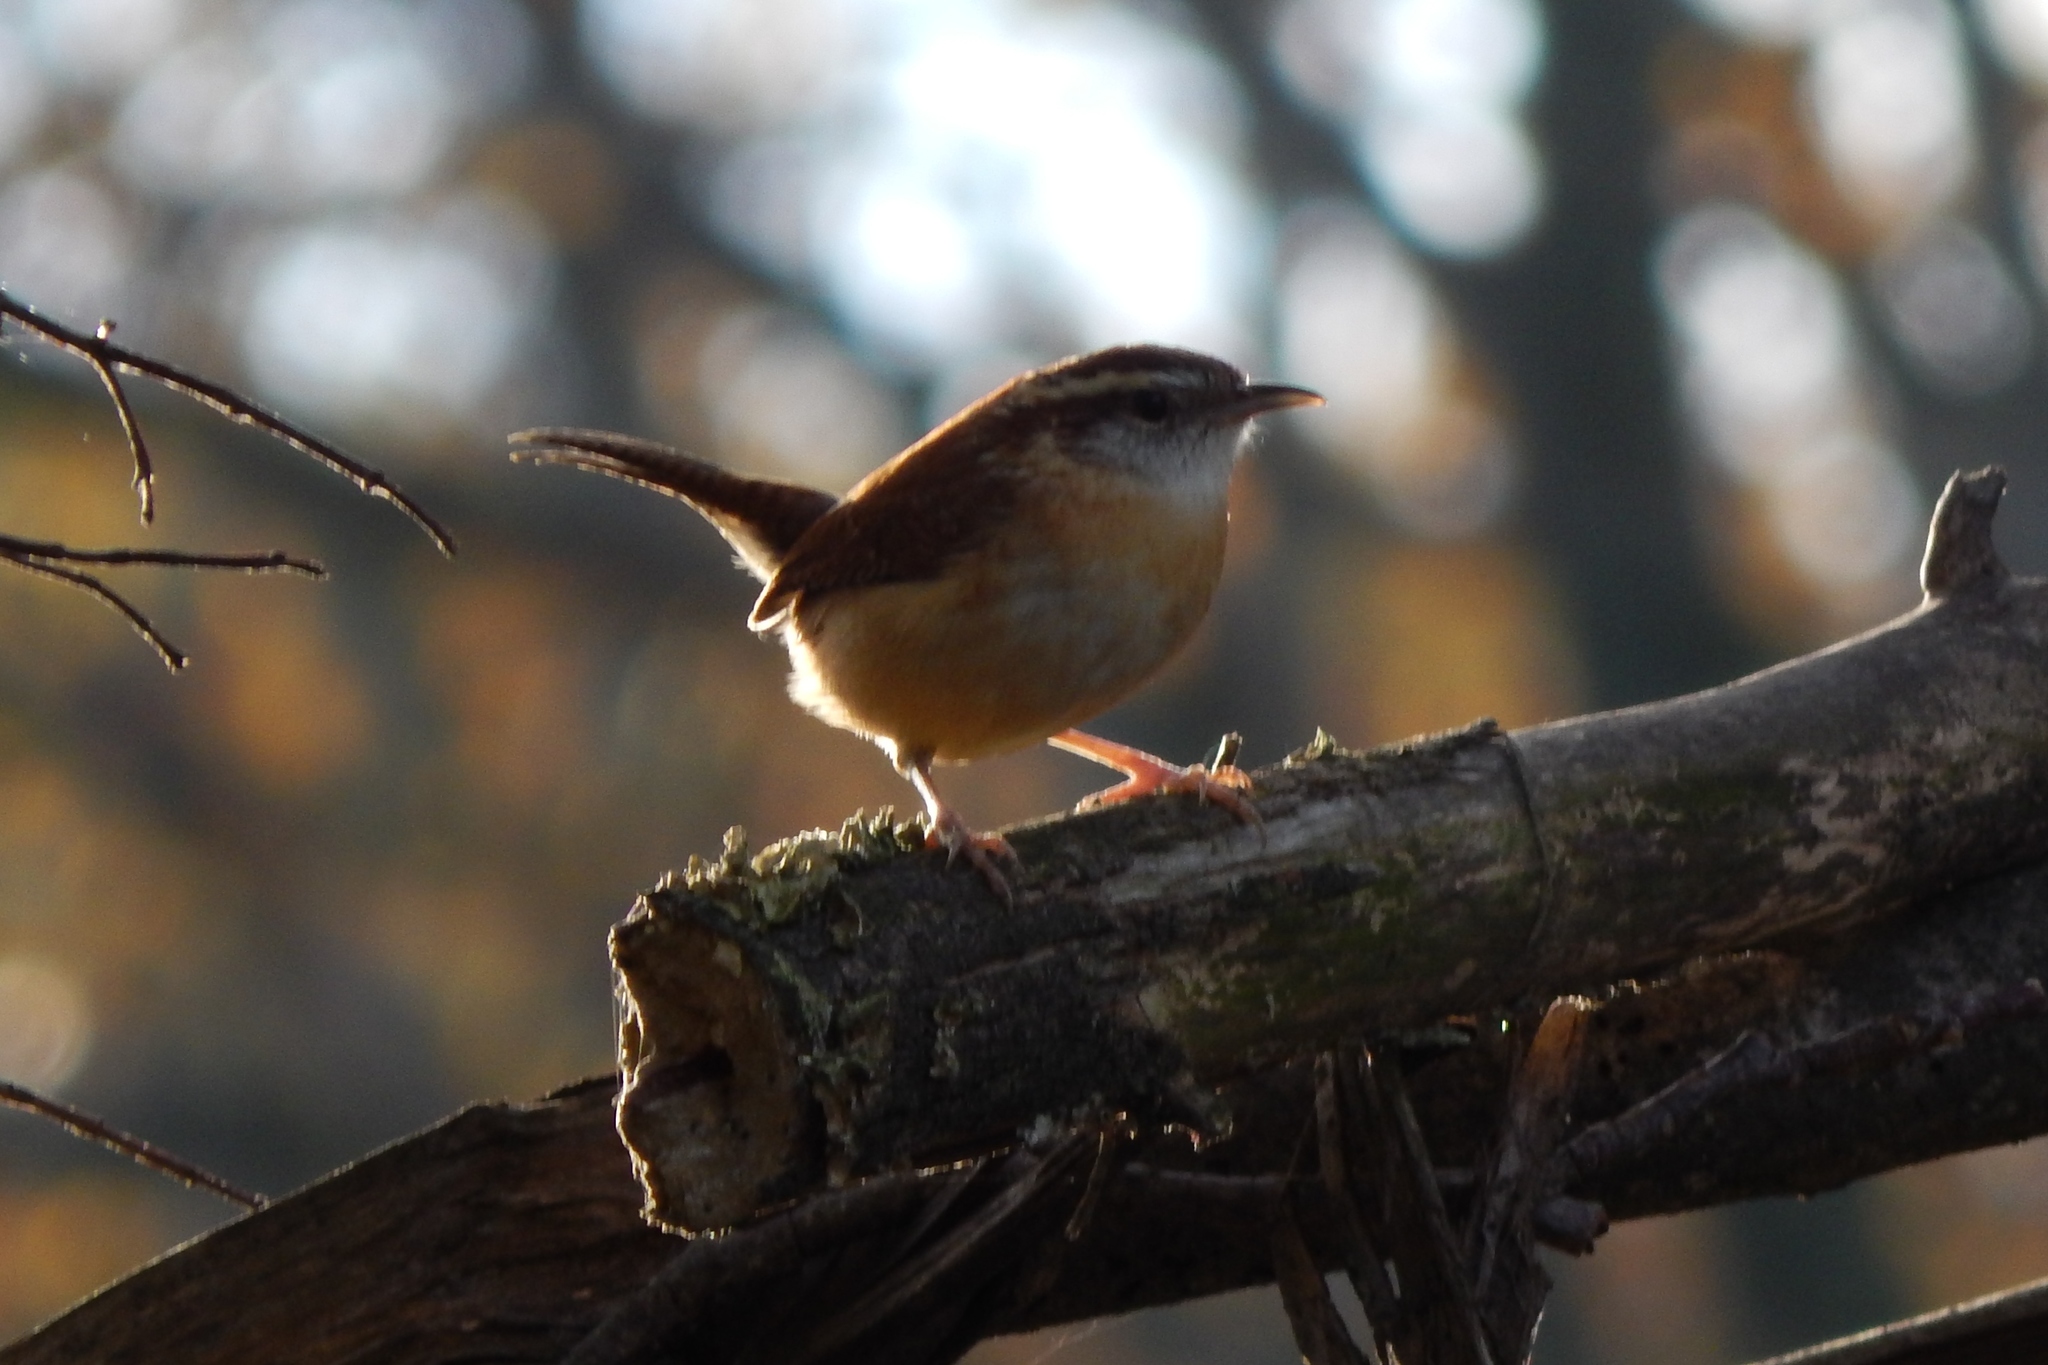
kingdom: Animalia
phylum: Chordata
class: Aves
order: Passeriformes
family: Troglodytidae
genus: Thryothorus
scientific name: Thryothorus ludovicianus
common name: Carolina wren
